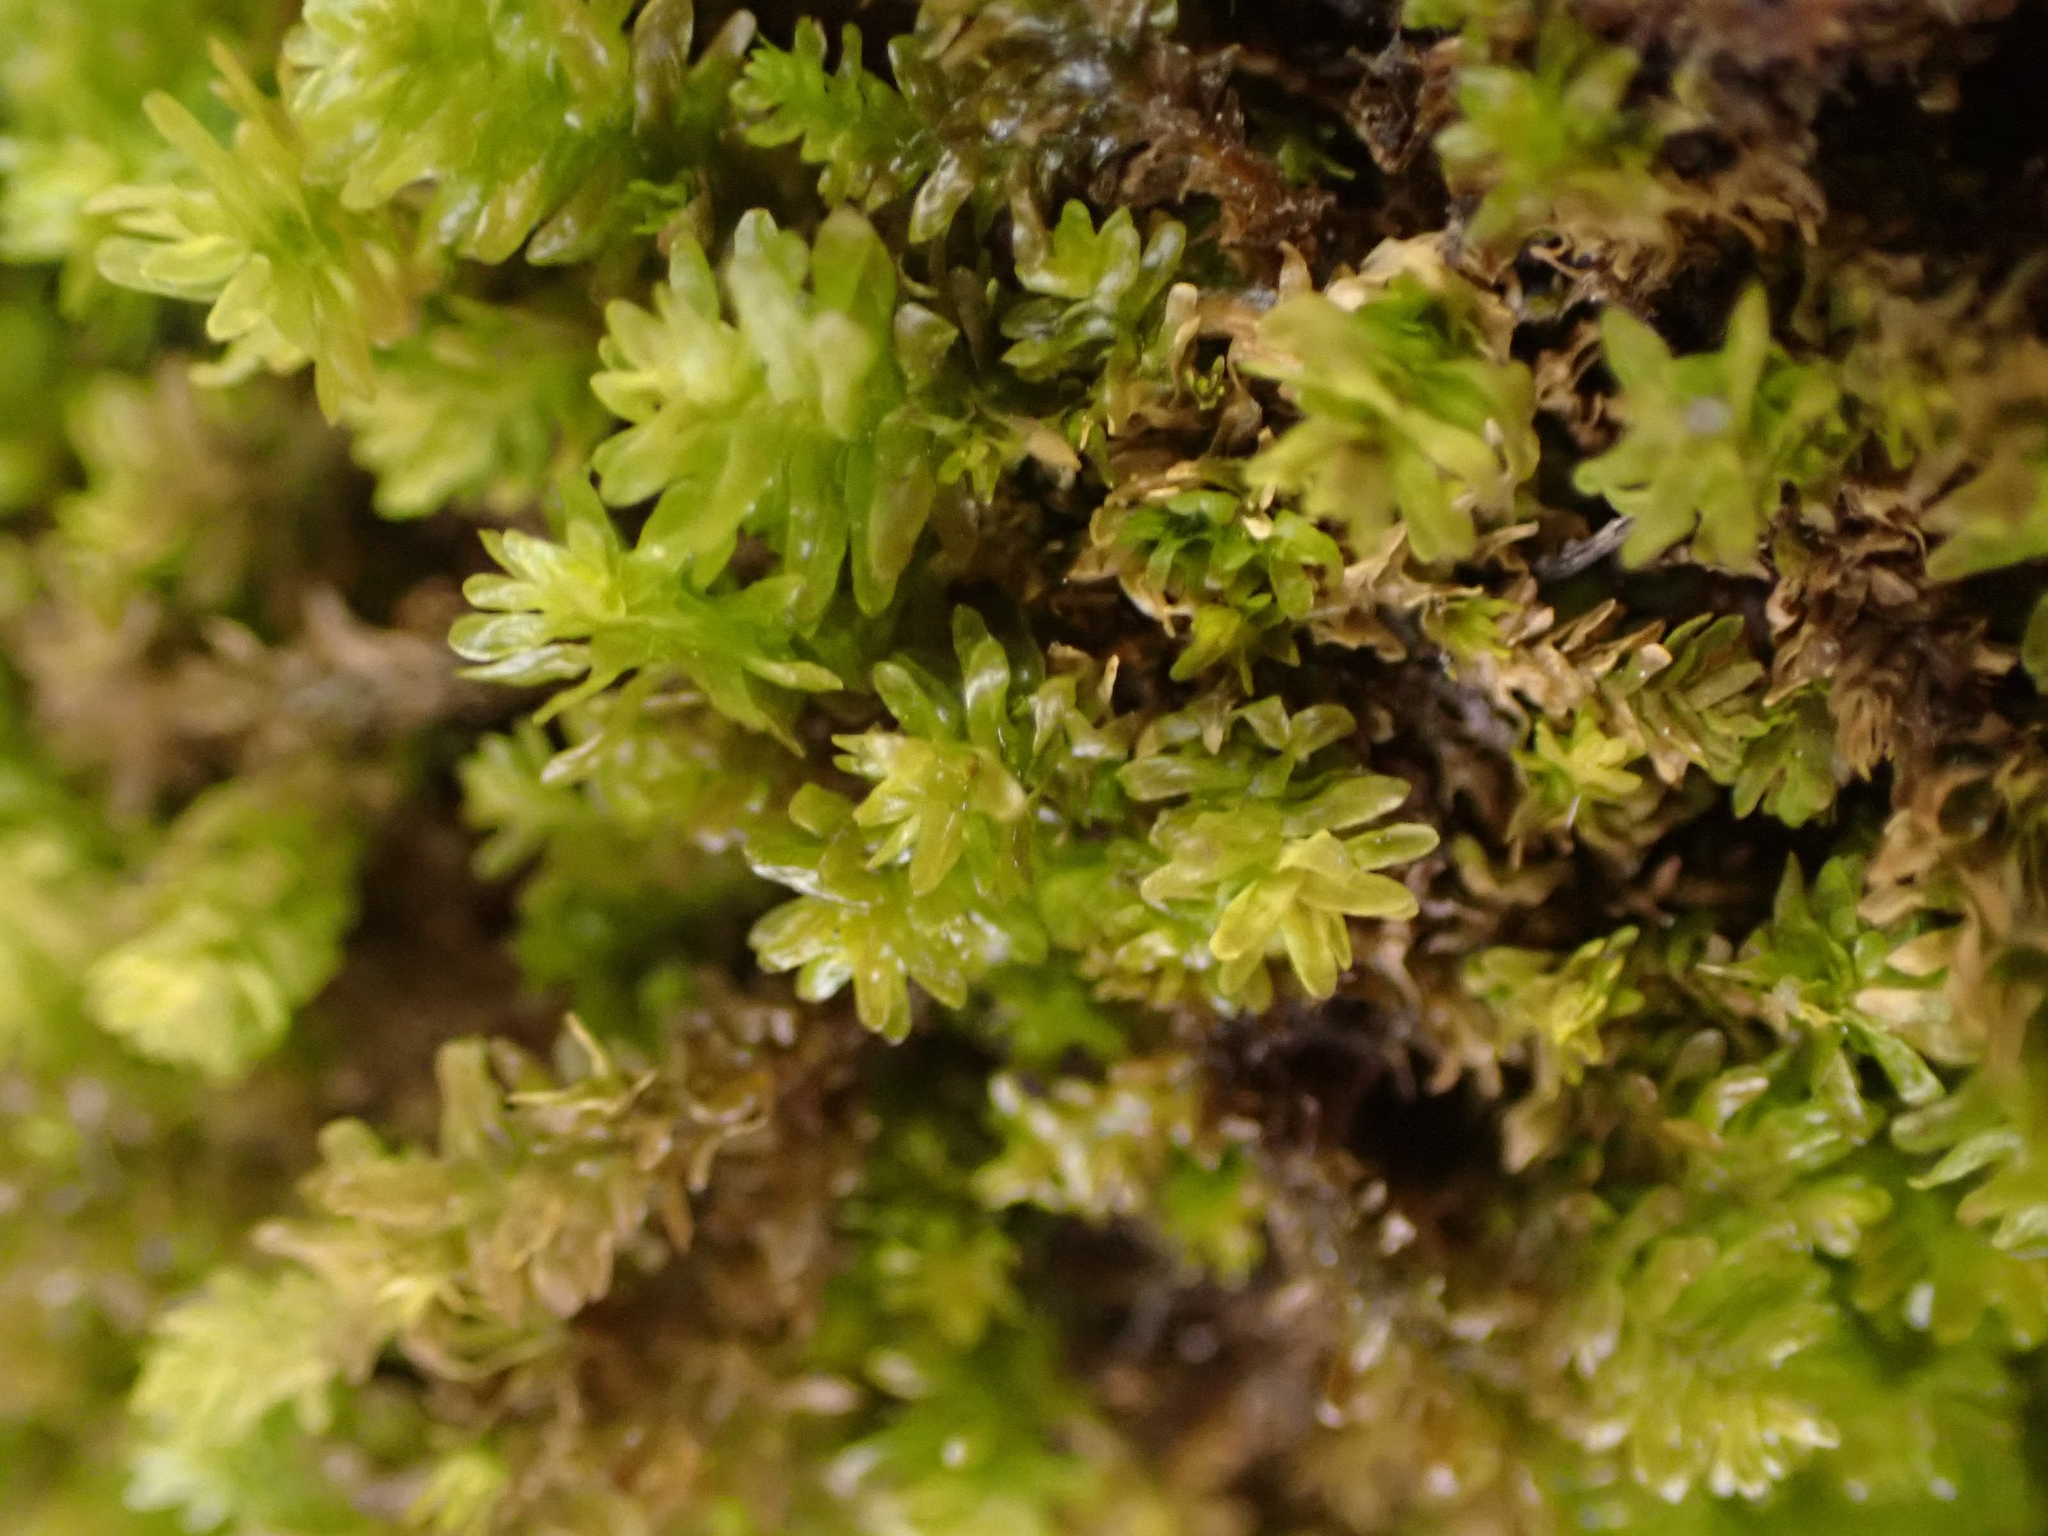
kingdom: Plantae
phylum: Bryophyta
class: Bryopsida
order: Hypnales
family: Anomodontaceae
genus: Anomodon
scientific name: Anomodon minor
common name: Blunt-leaved anomodon
